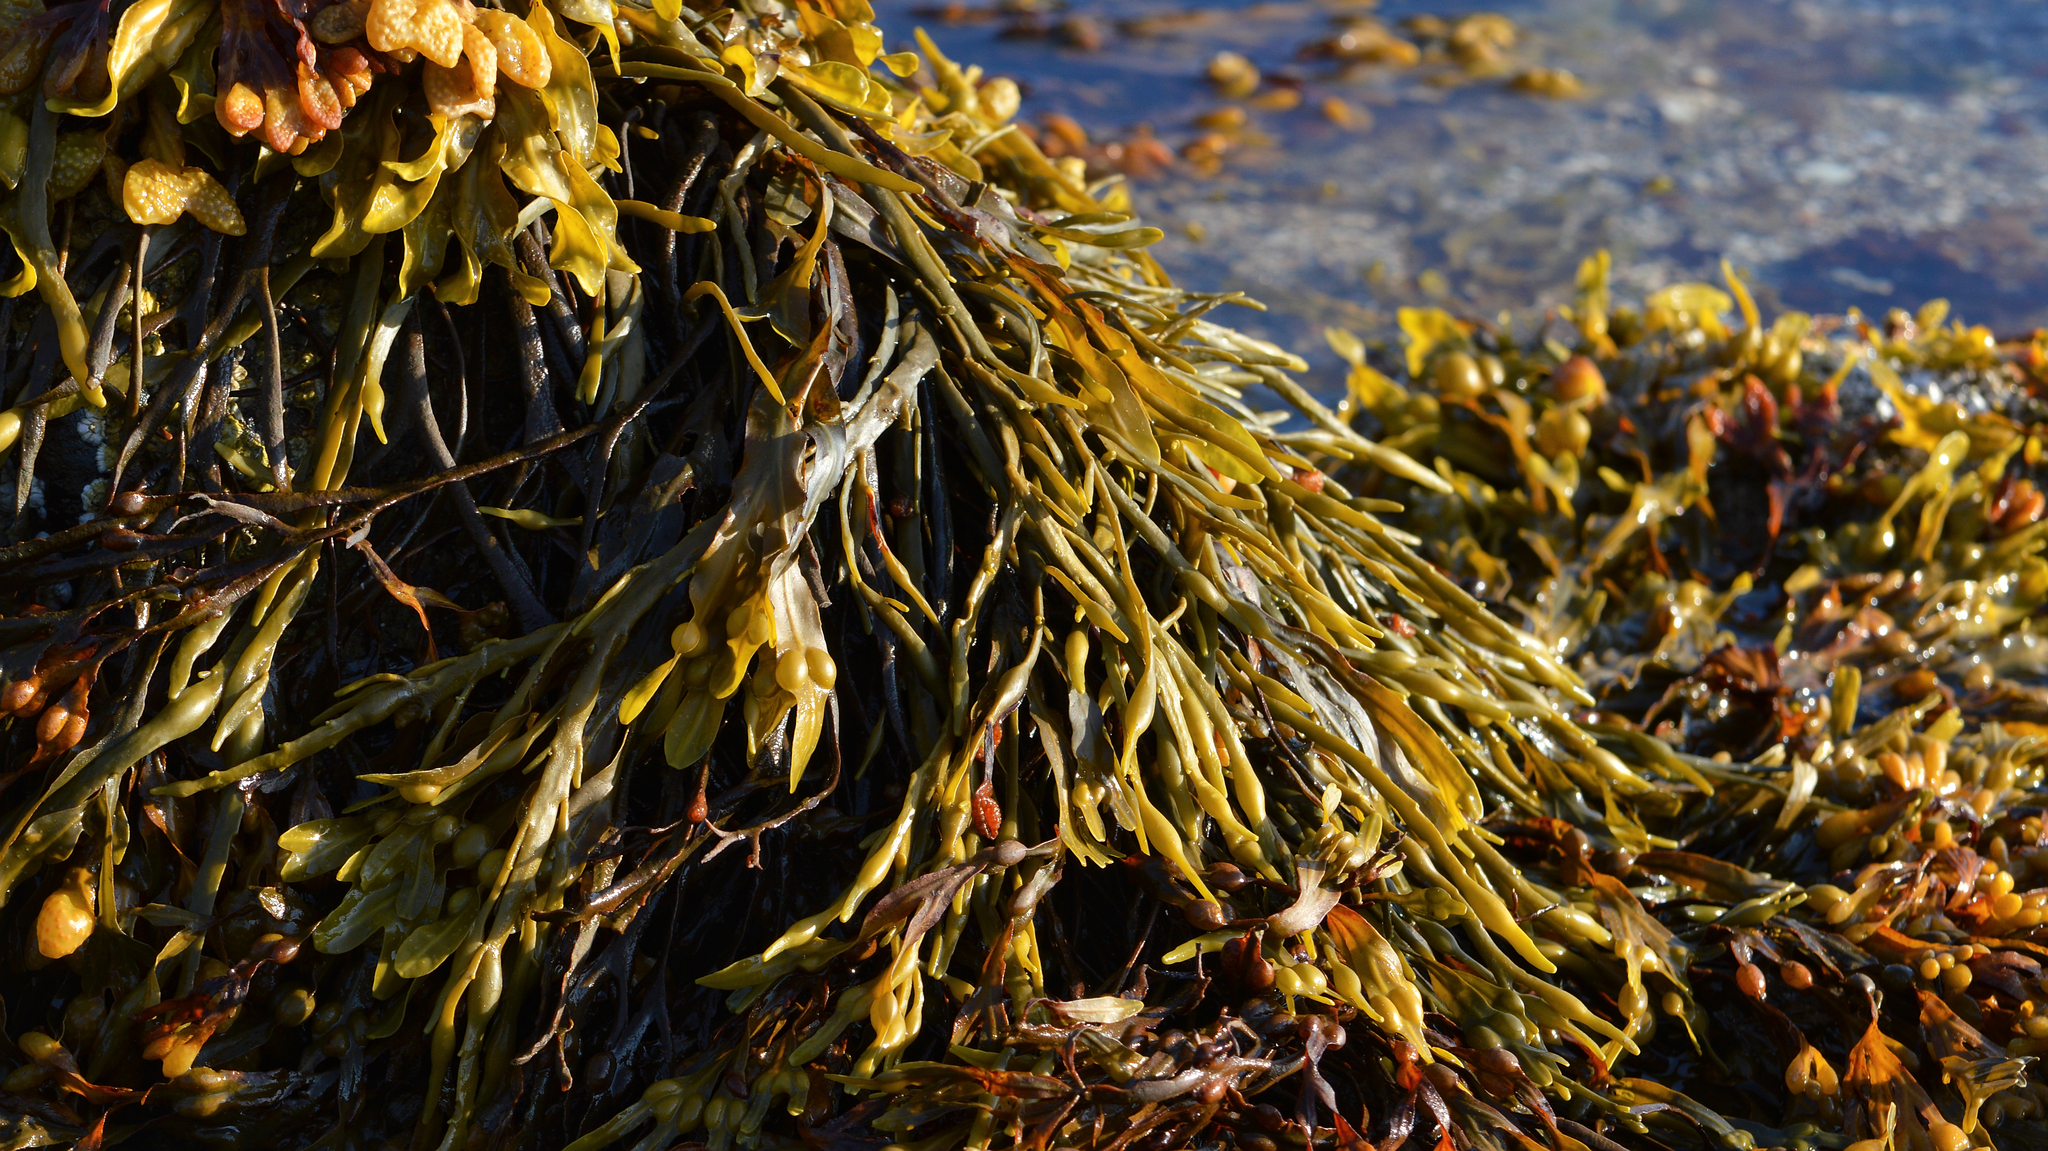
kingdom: Chromista
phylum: Ochrophyta
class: Phaeophyceae
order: Fucales
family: Fucaceae
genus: Ascophyllum
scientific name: Ascophyllum nodosum
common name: Knotted wrack
